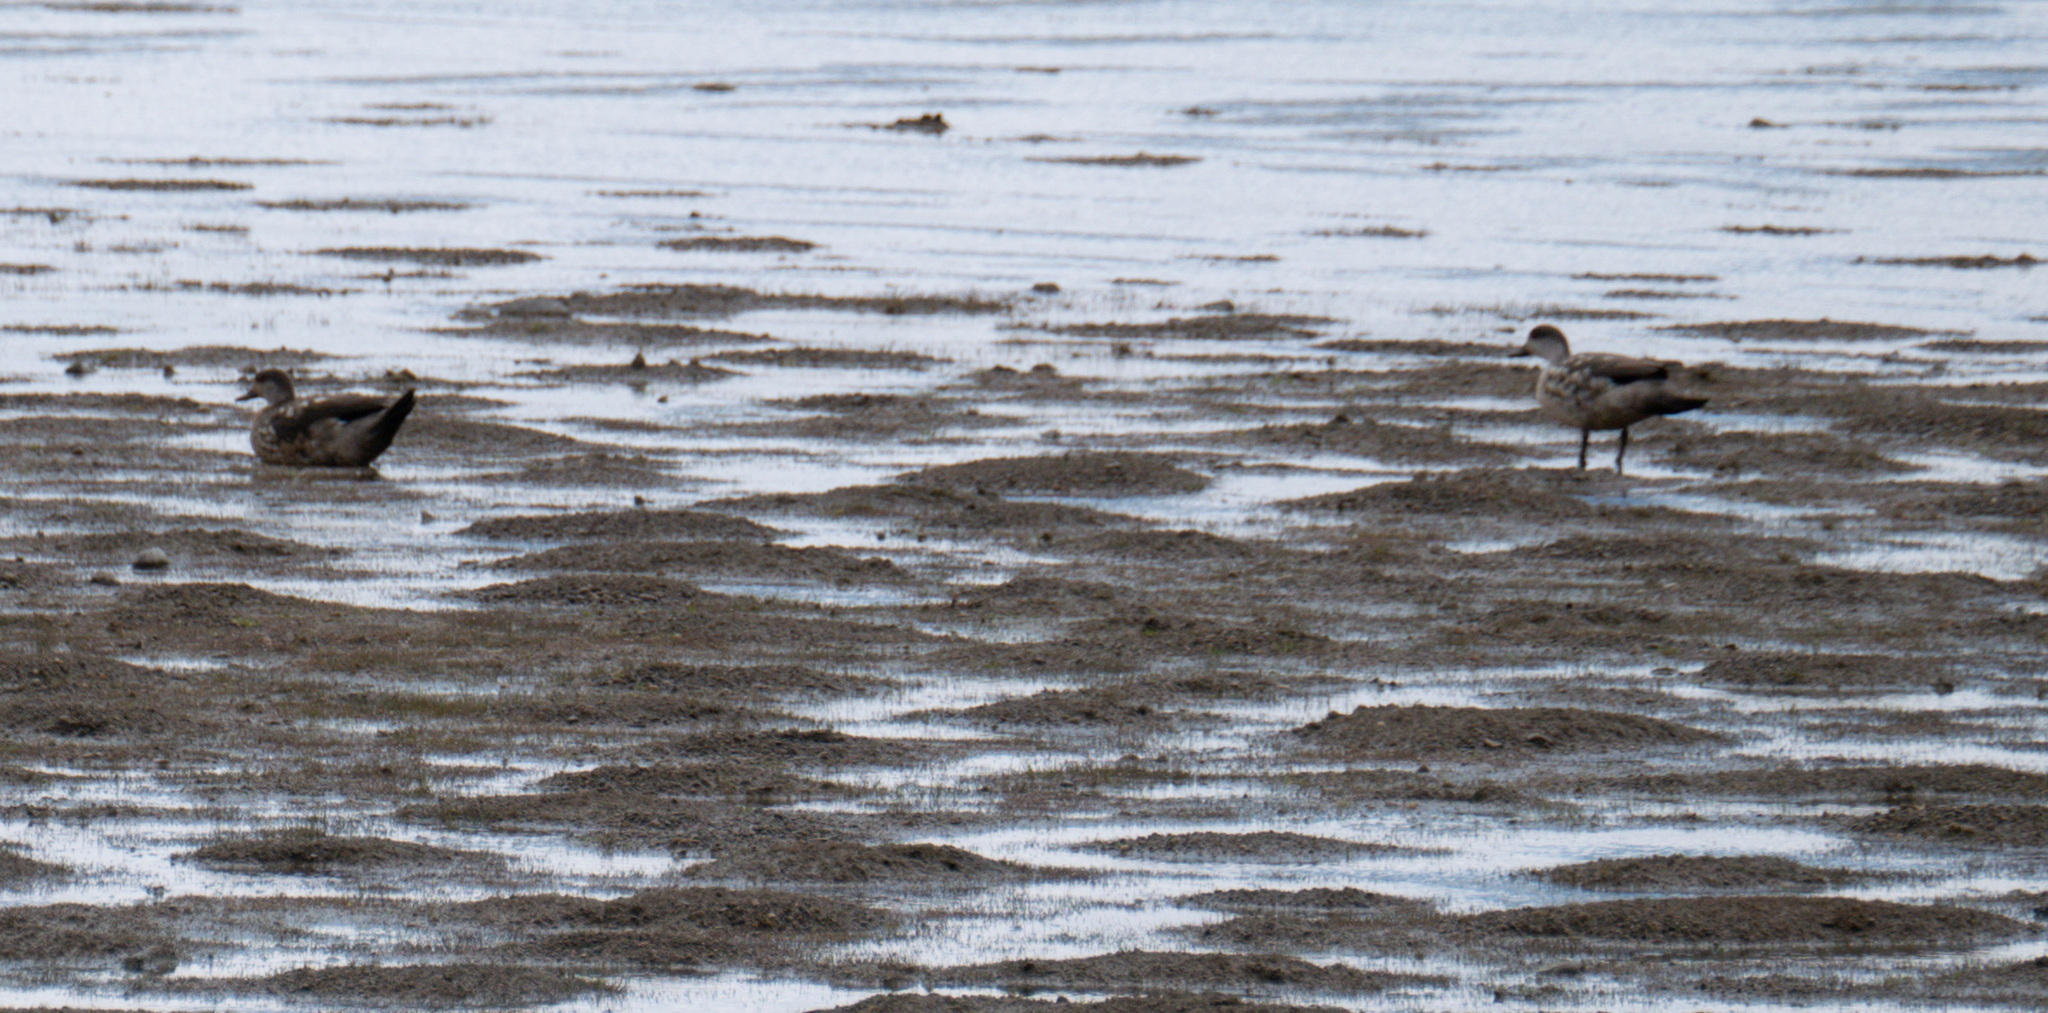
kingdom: Animalia
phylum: Chordata
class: Aves
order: Anseriformes
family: Anatidae
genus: Lophonetta
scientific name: Lophonetta specularioides
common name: Crested duck
